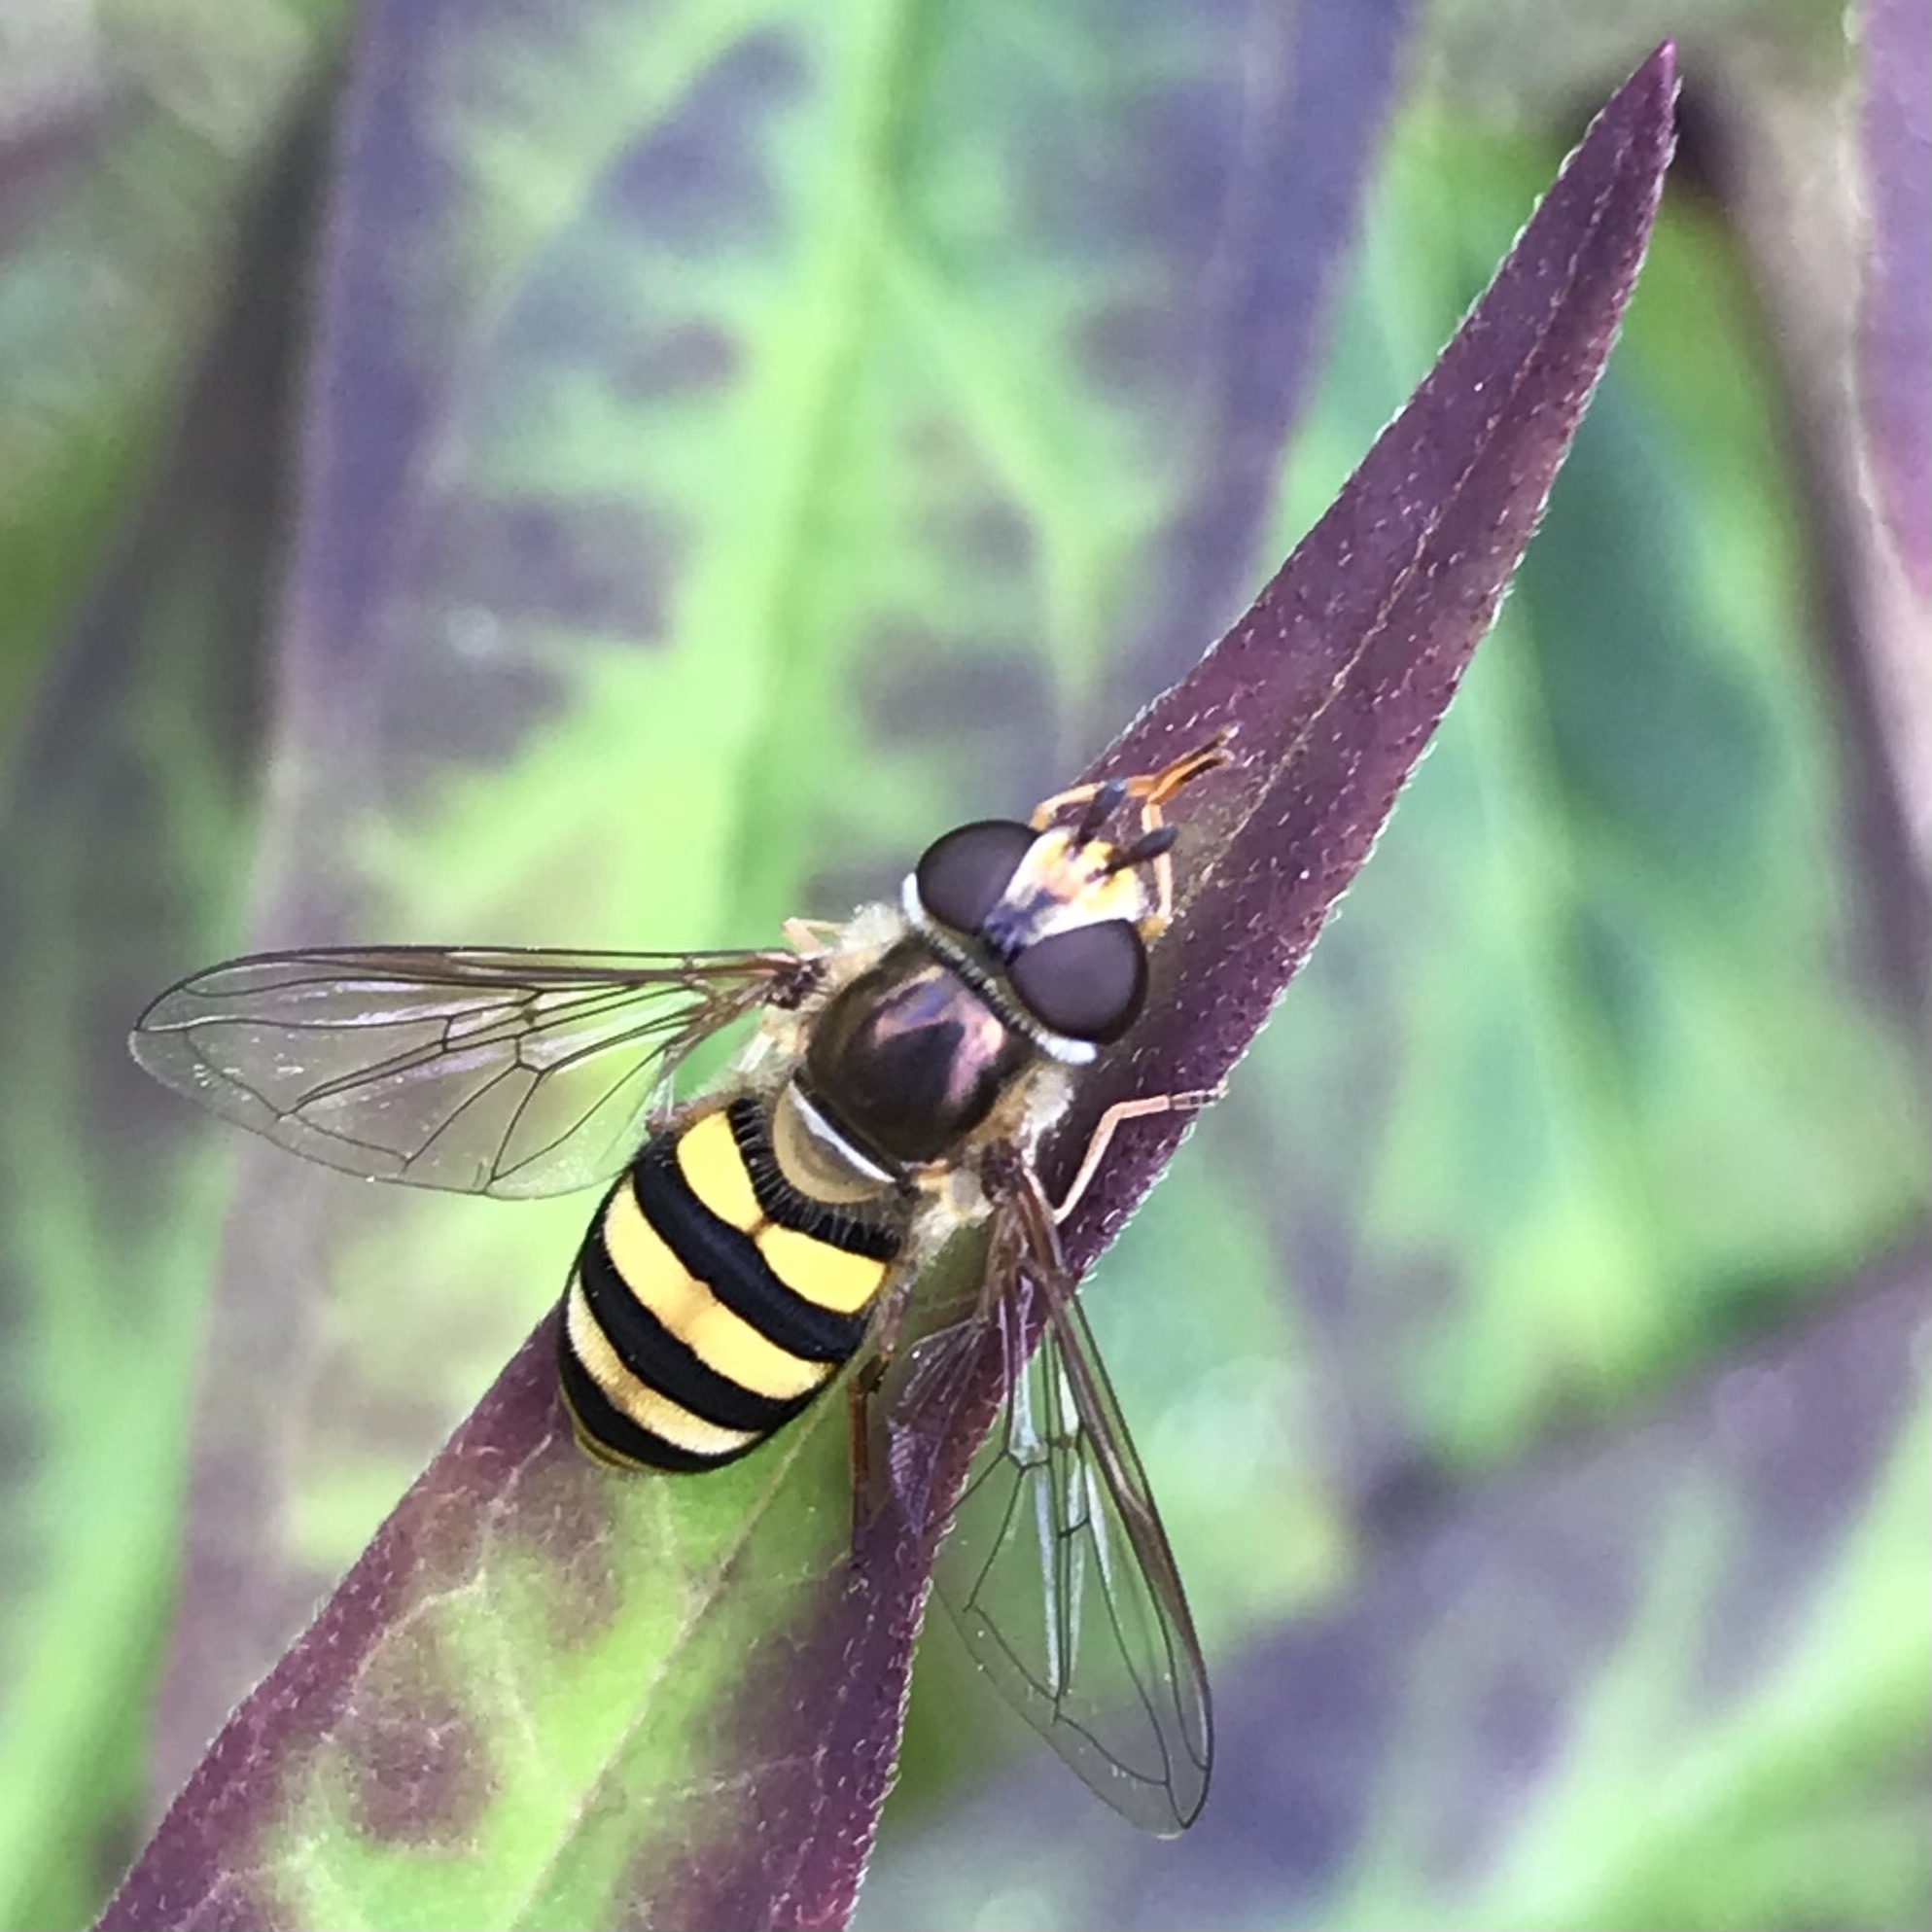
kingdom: Animalia
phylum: Arthropoda
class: Insecta
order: Diptera
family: Syrphidae
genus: Eupeodes
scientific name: Eupeodes
